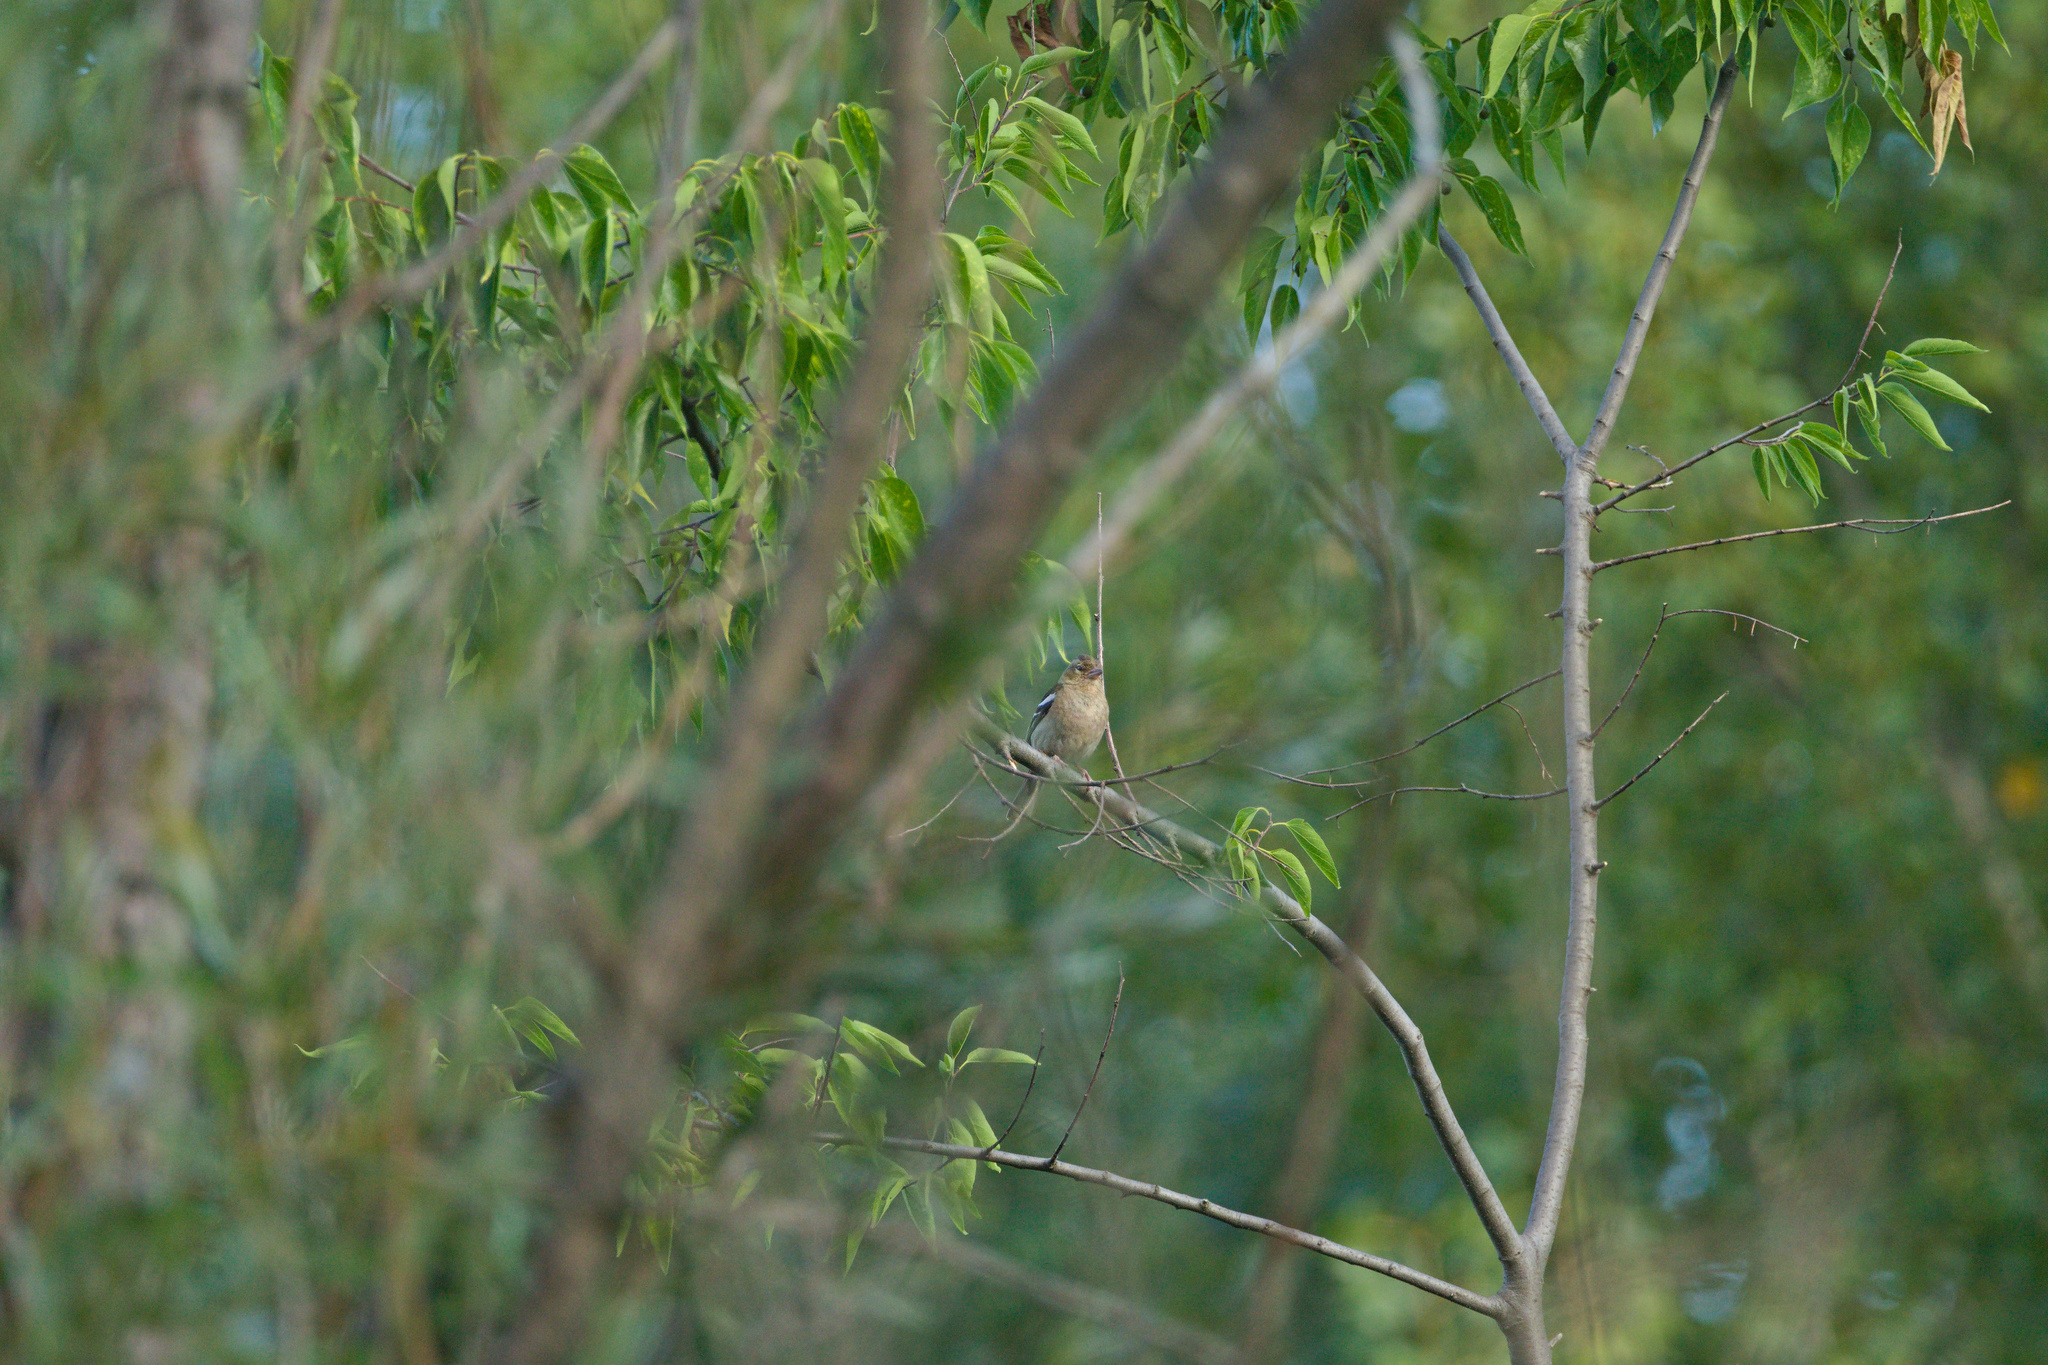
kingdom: Animalia
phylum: Chordata
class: Aves
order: Passeriformes
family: Fringillidae
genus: Fringilla
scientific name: Fringilla coelebs
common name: Common chaffinch
